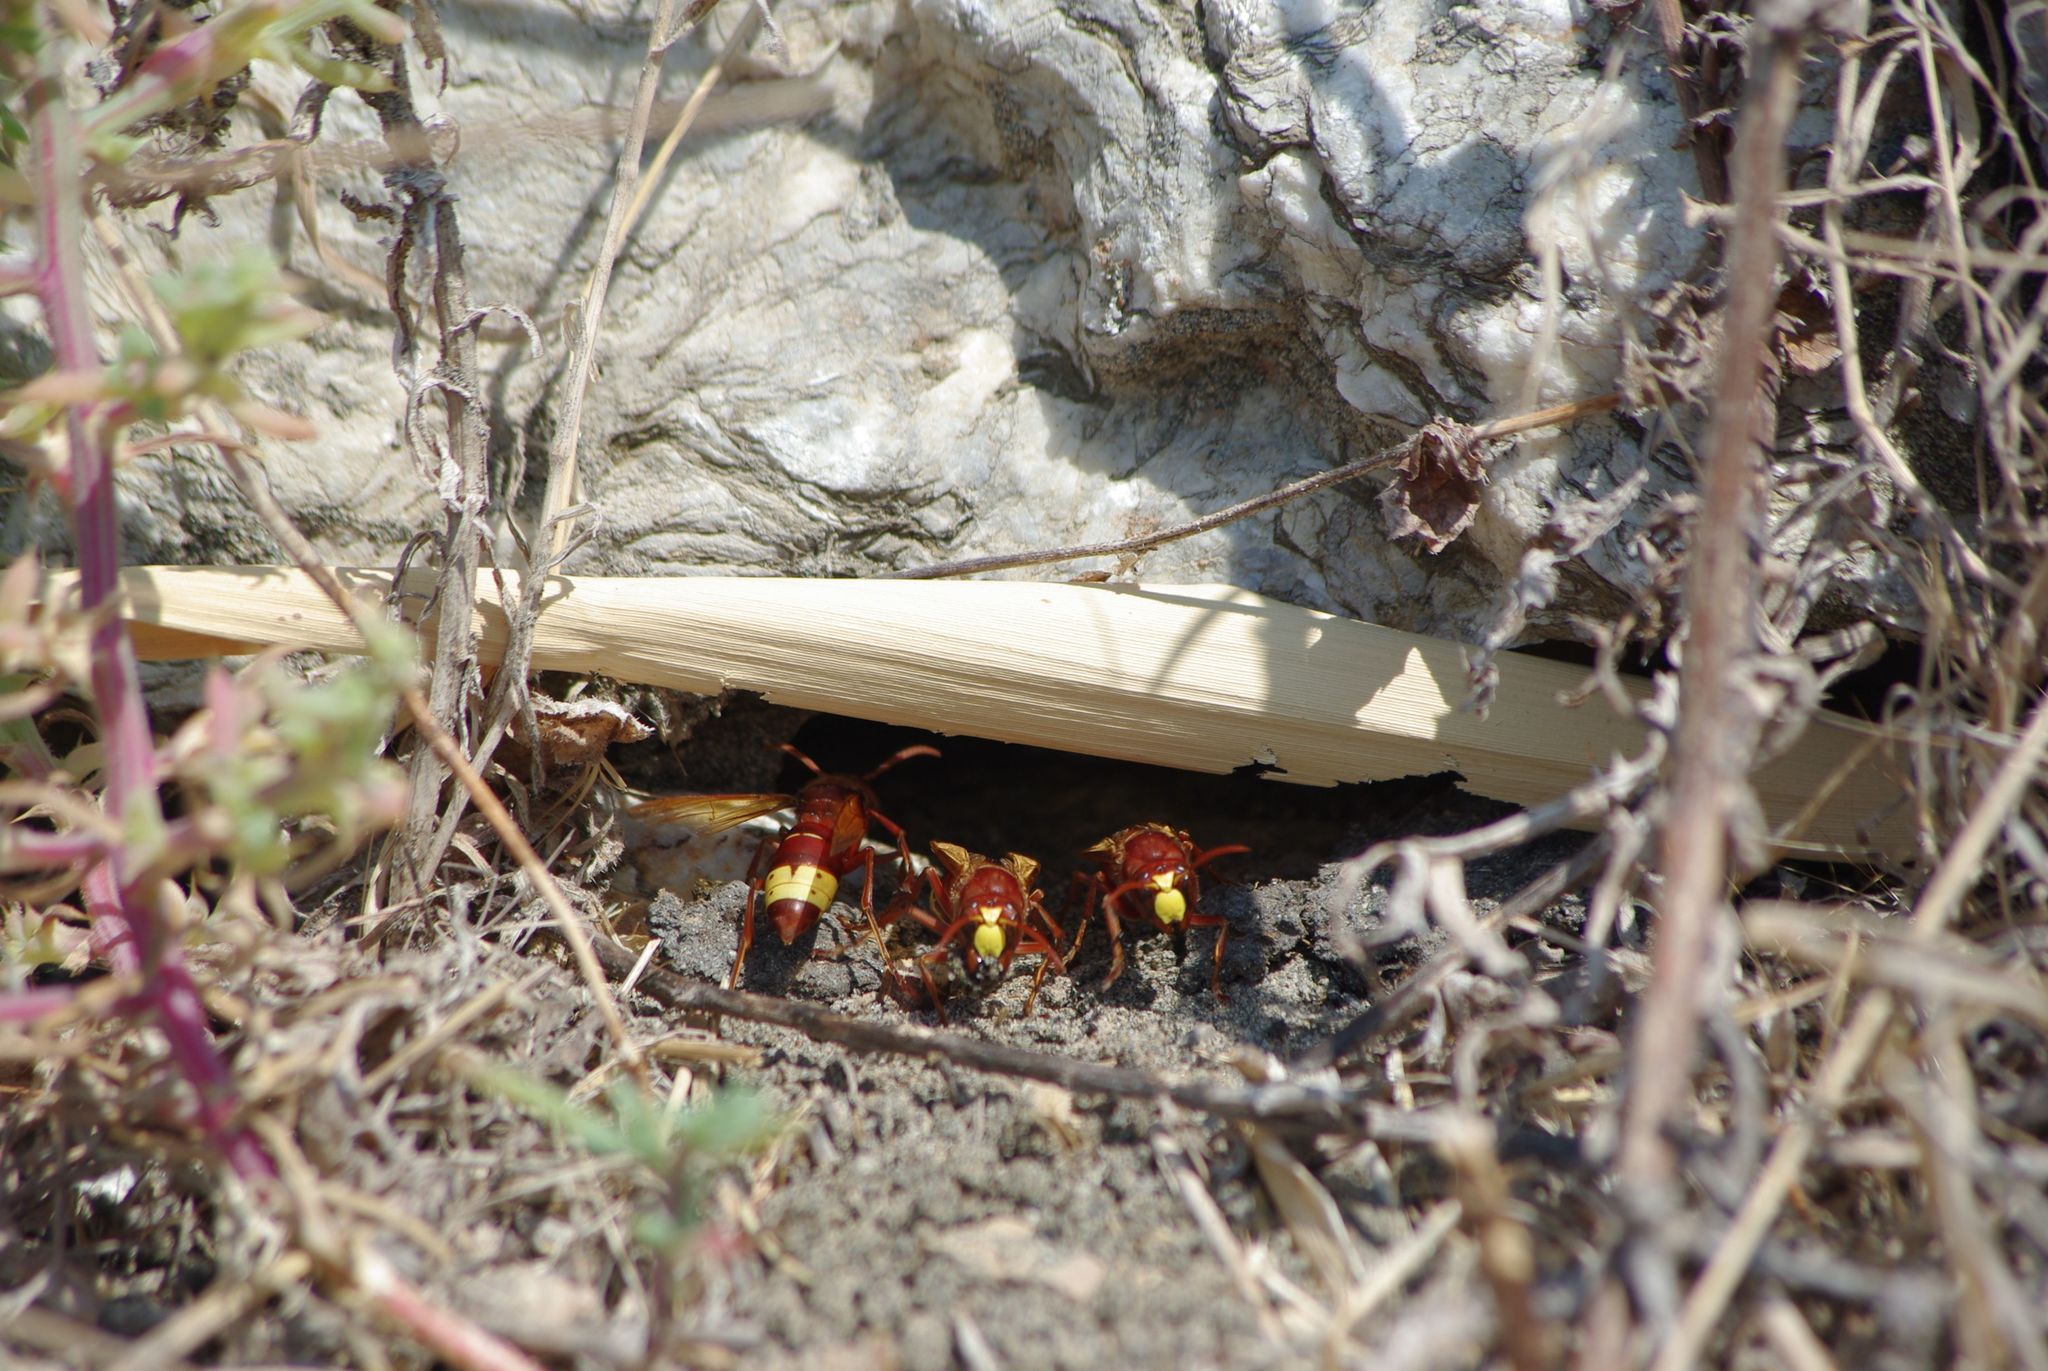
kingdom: Animalia
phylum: Arthropoda
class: Insecta
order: Hymenoptera
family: Vespidae
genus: Vespa
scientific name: Vespa orientalis
